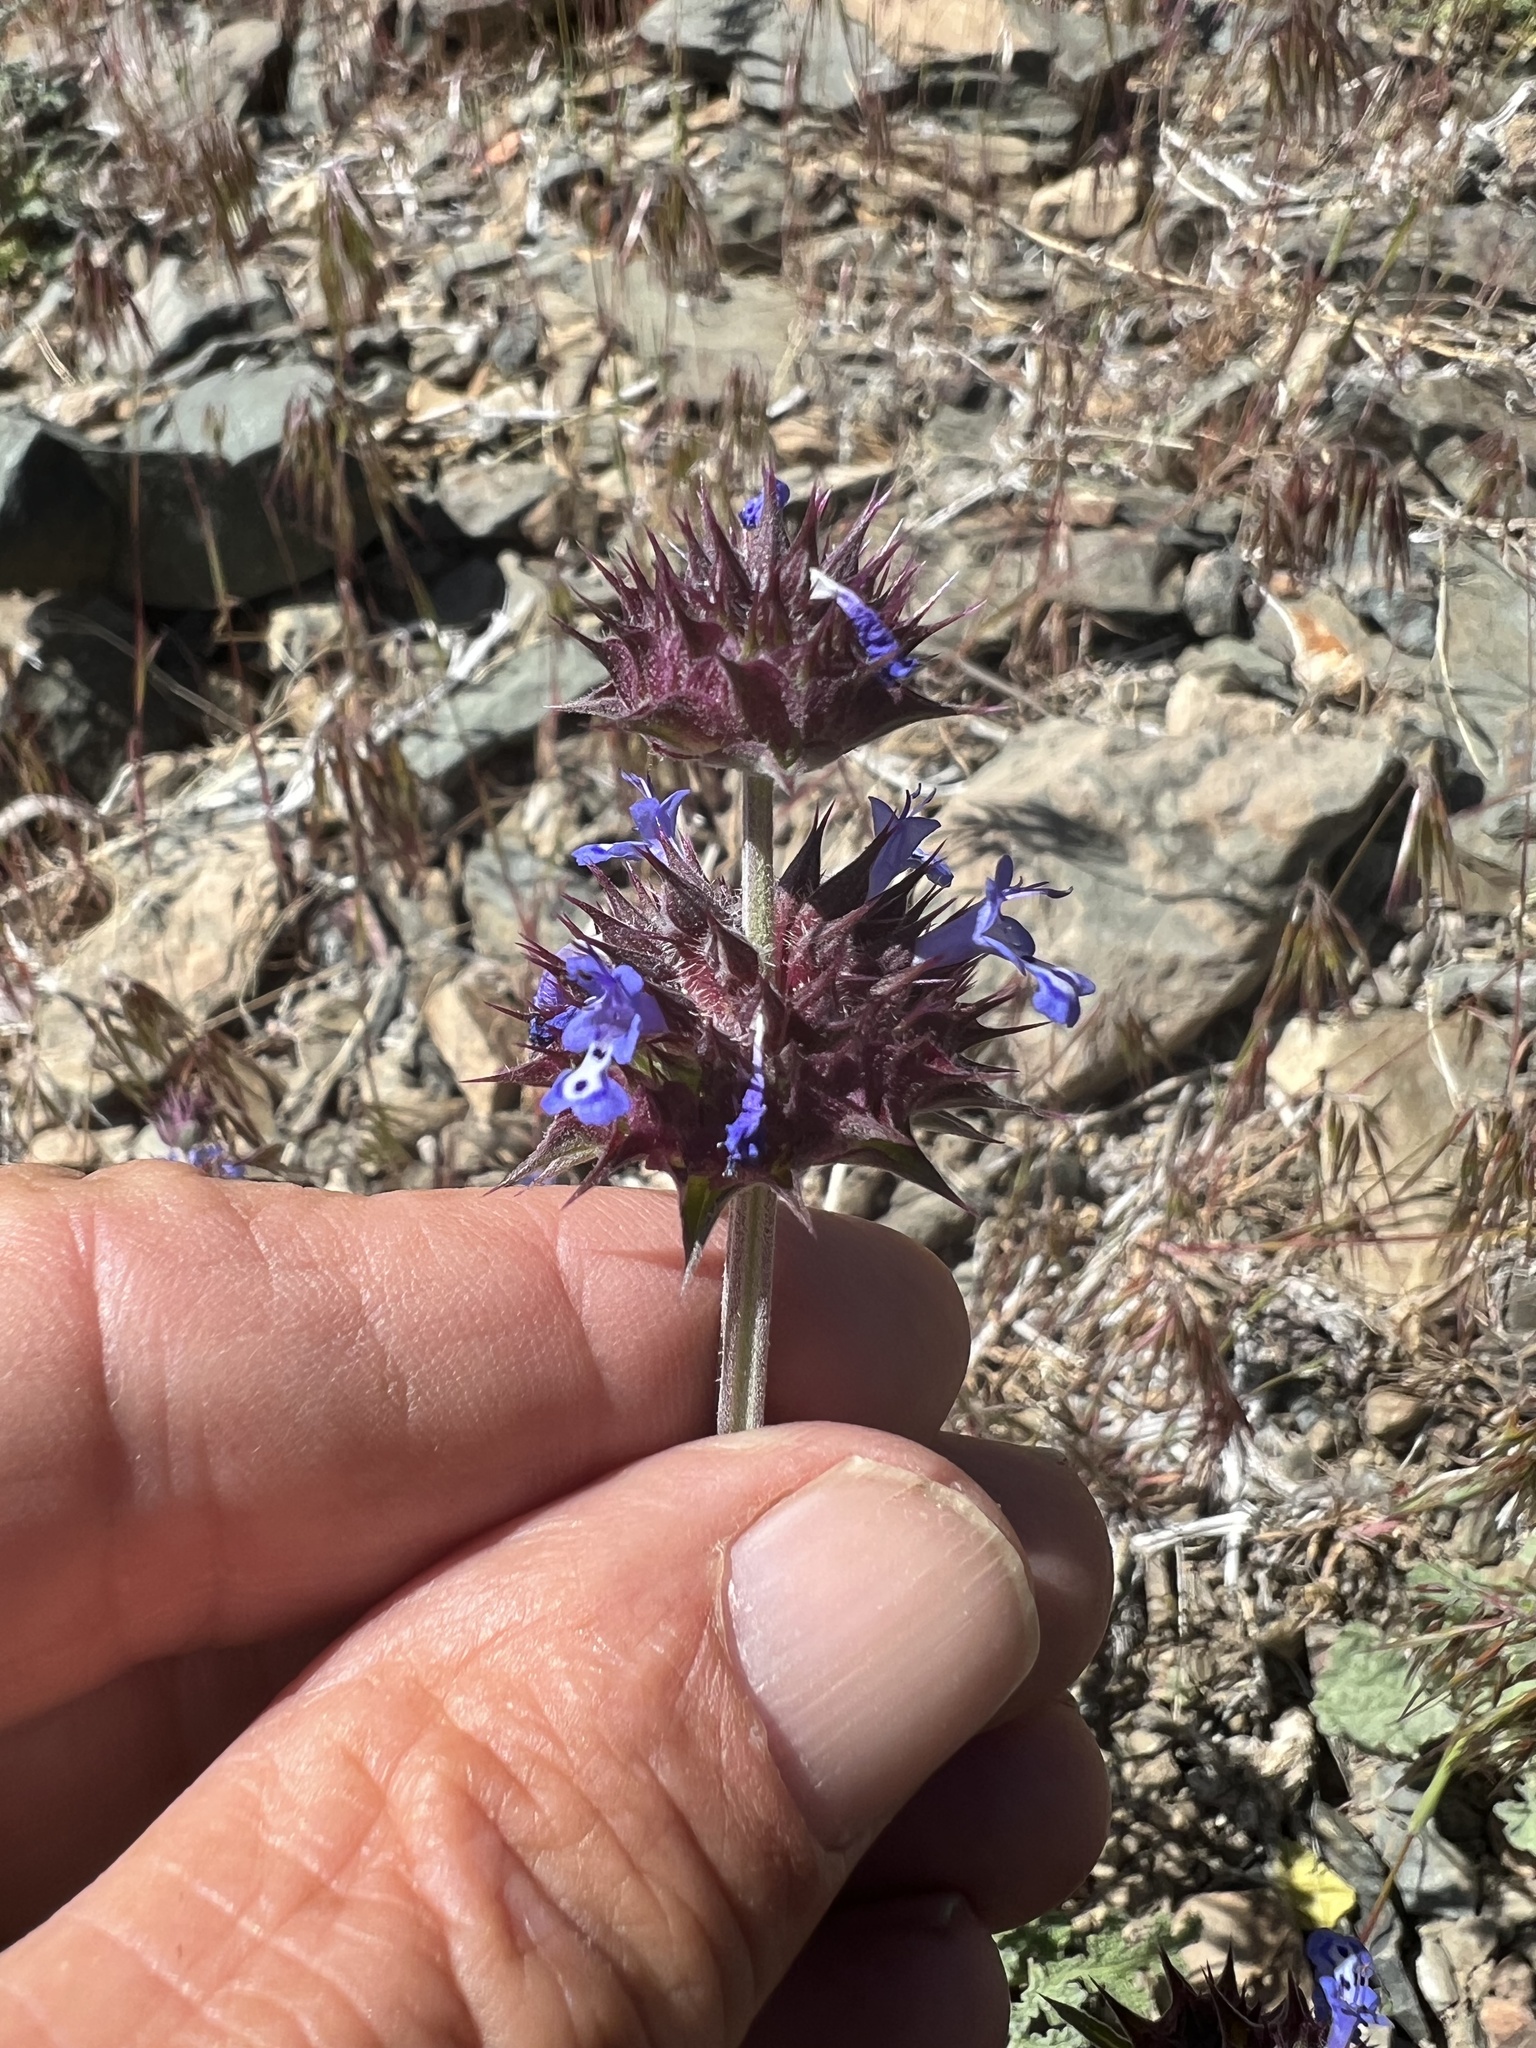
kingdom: Plantae
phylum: Tracheophyta
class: Magnoliopsida
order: Lamiales
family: Lamiaceae
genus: Salvia
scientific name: Salvia columbariae
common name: Chia
